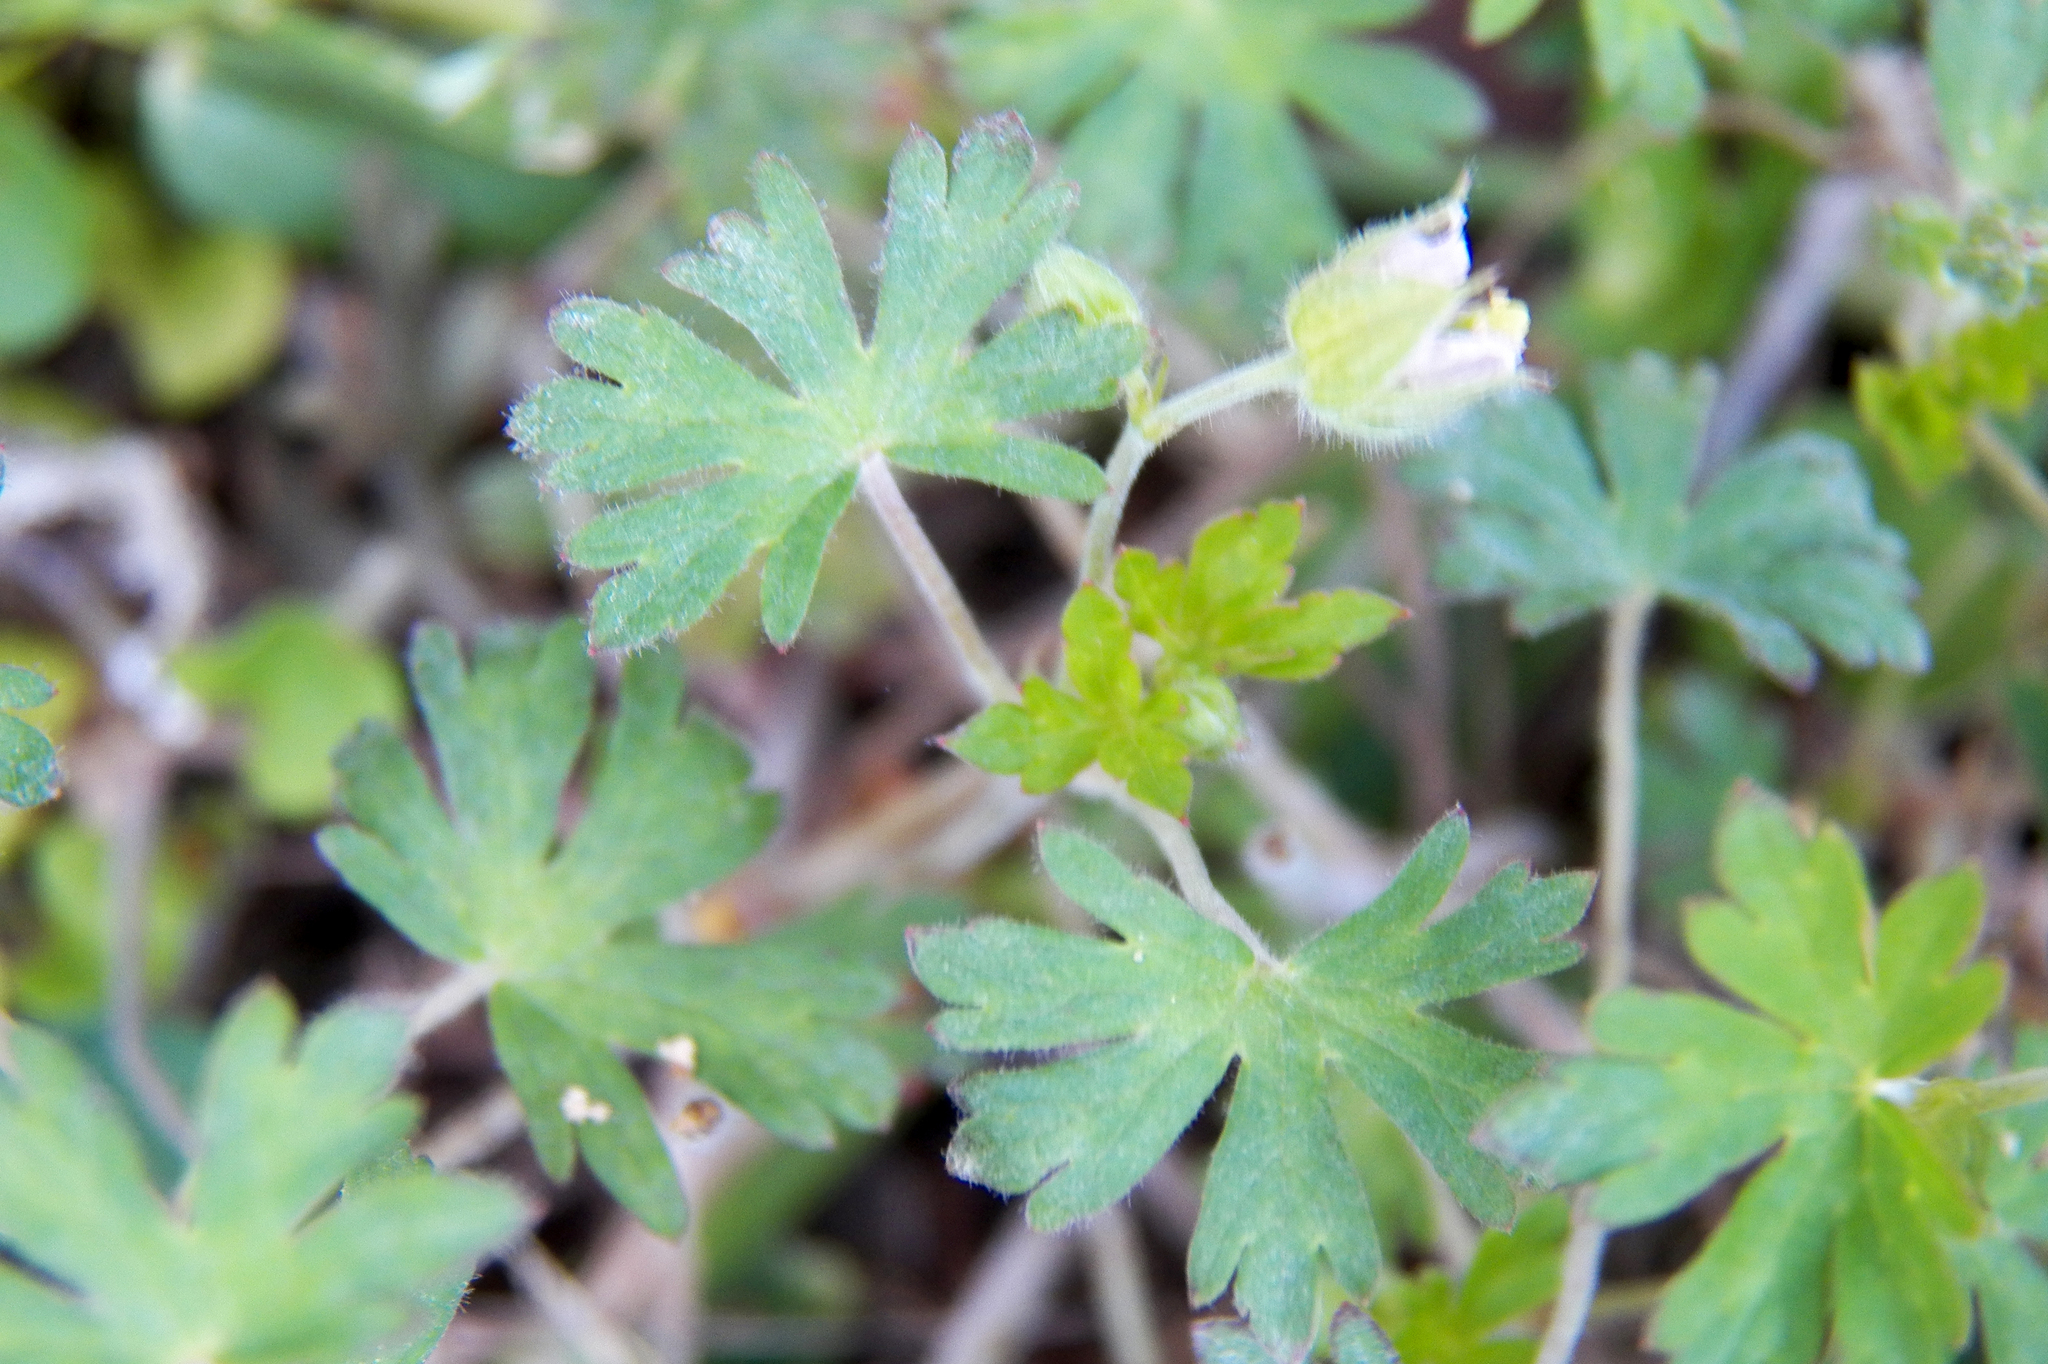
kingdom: Plantae
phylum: Tracheophyta
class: Magnoliopsida
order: Geraniales
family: Geraniaceae
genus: Geranium
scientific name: Geranium carolinianum
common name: Carolina crane's-bill
